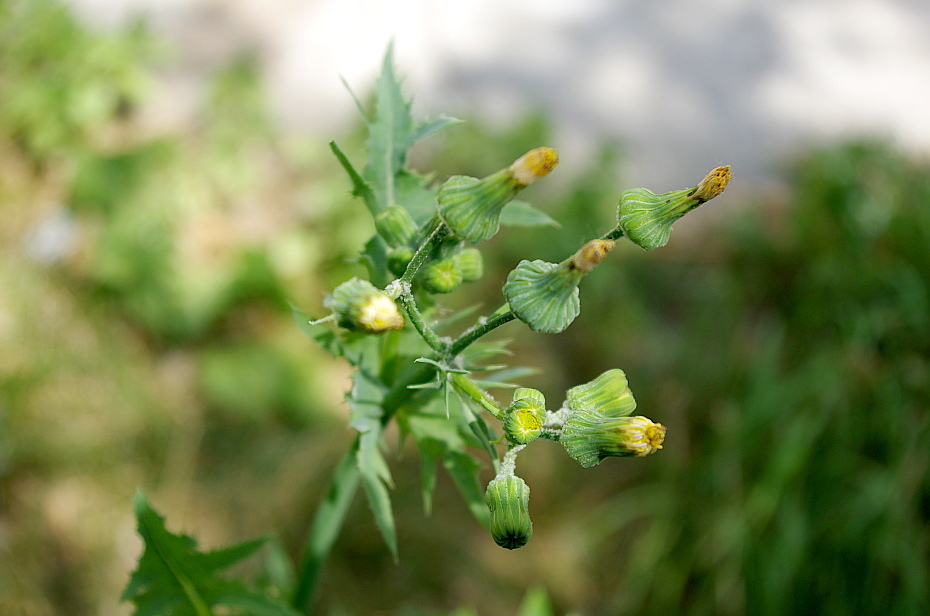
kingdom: Plantae
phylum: Tracheophyta
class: Magnoliopsida
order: Asterales
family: Asteraceae
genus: Sonchus
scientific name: Sonchus oleraceus
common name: Common sowthistle
